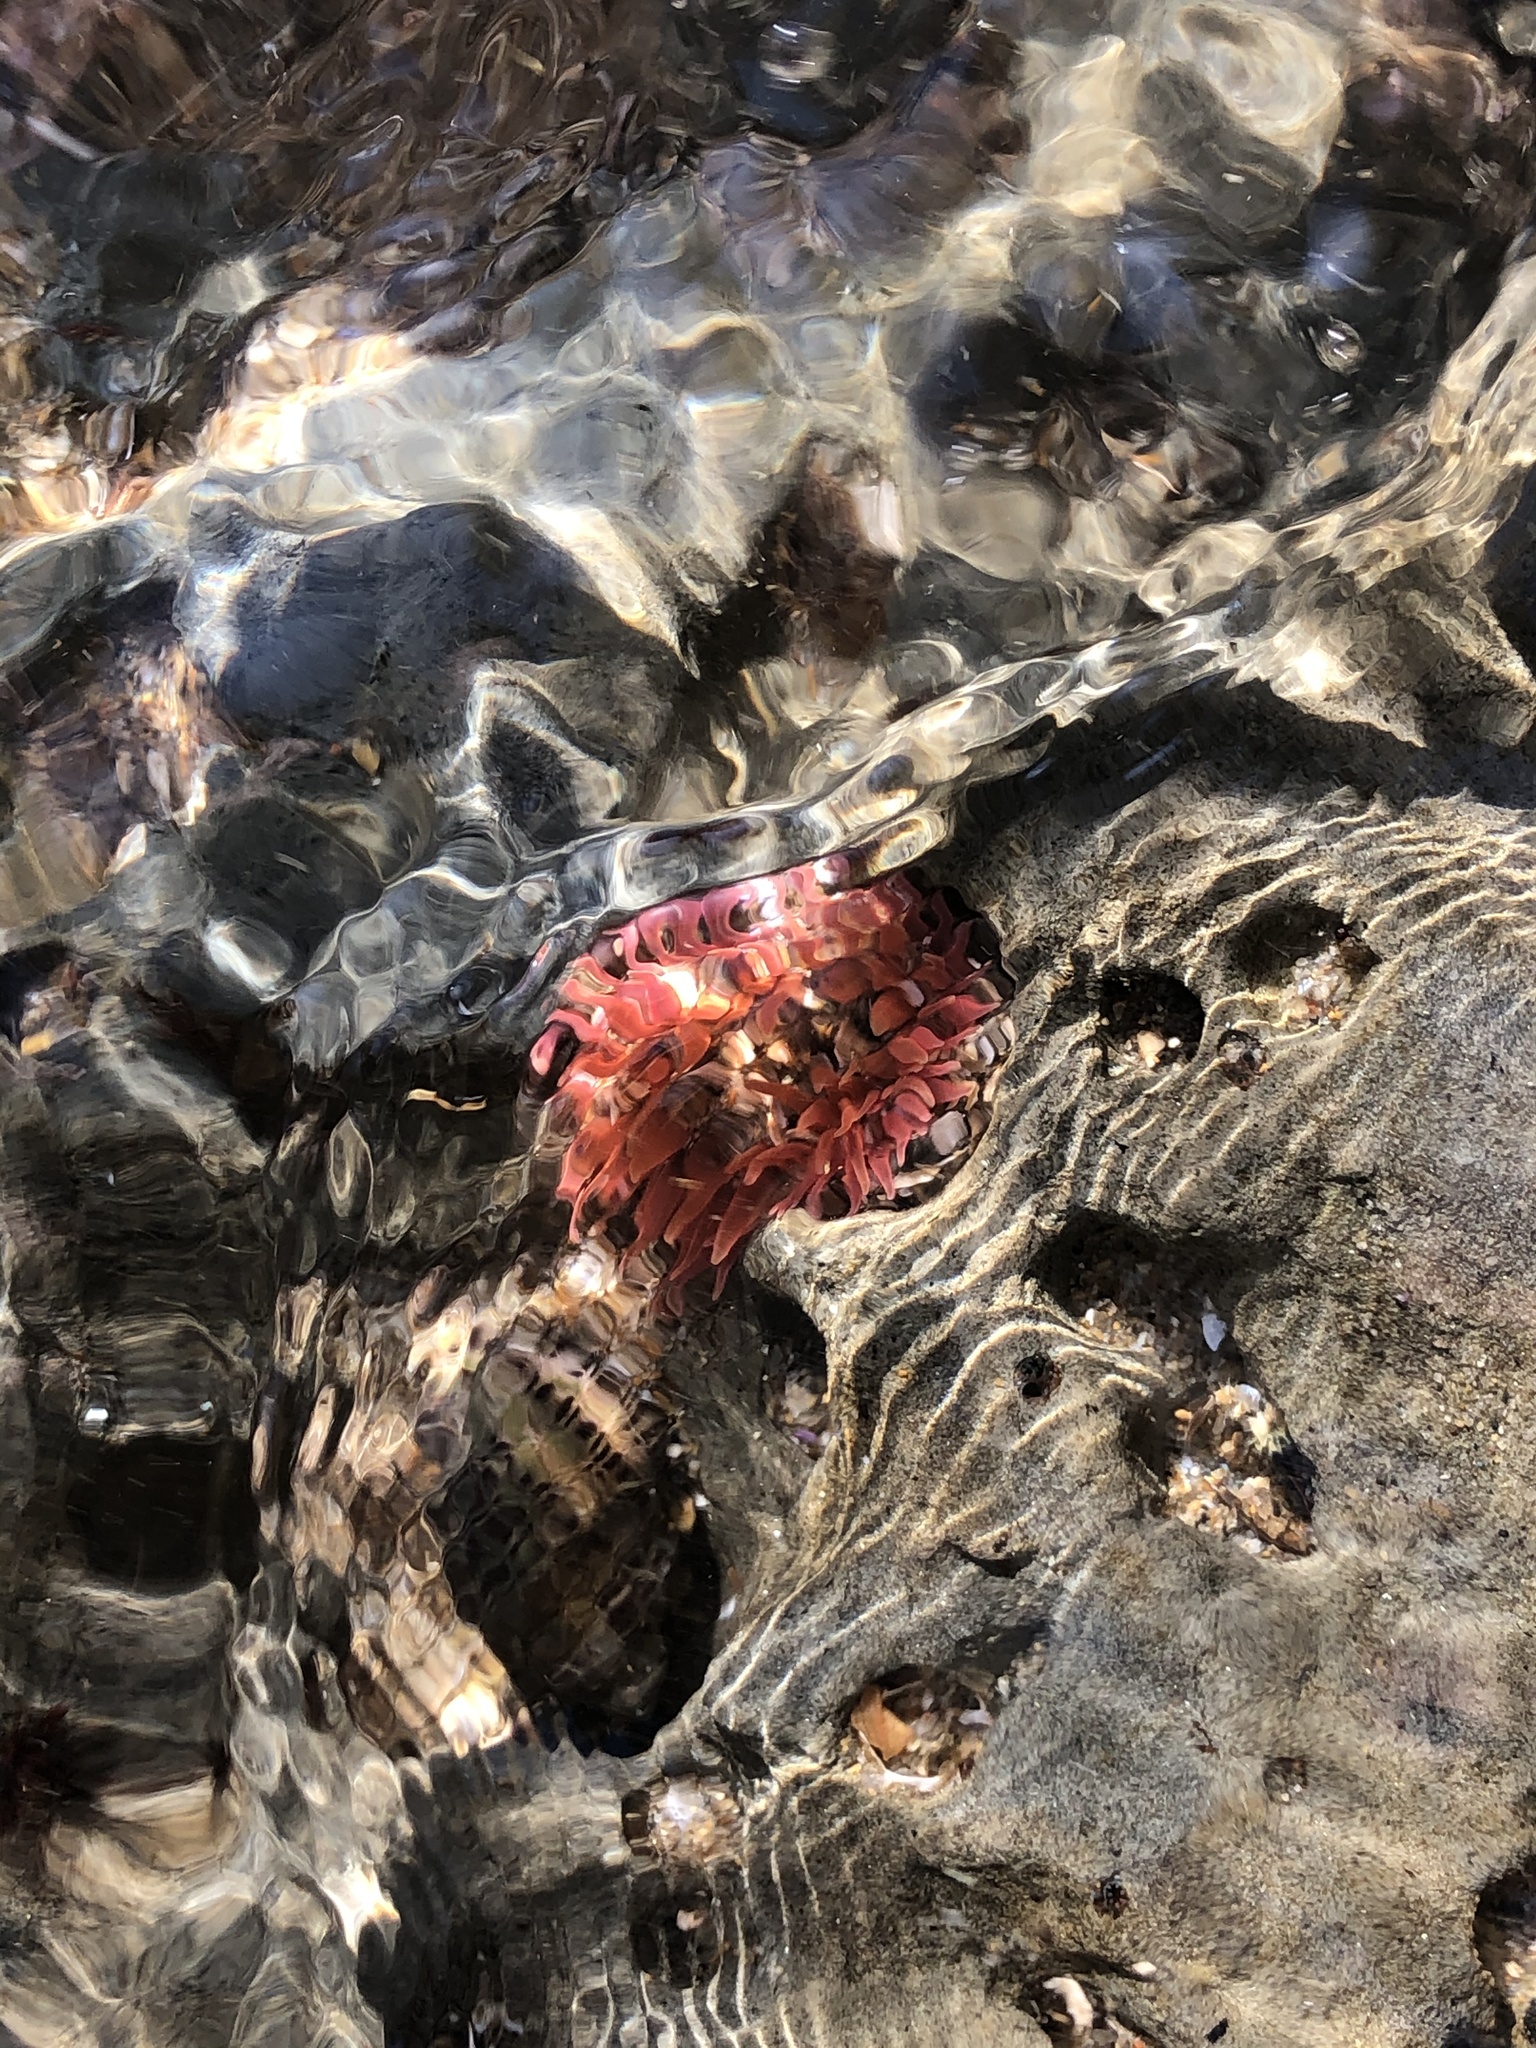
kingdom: Animalia
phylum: Cnidaria
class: Anthozoa
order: Actiniaria
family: Actiniidae
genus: Anthopleura
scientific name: Anthopleura artemisia
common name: Buried sea anemone
